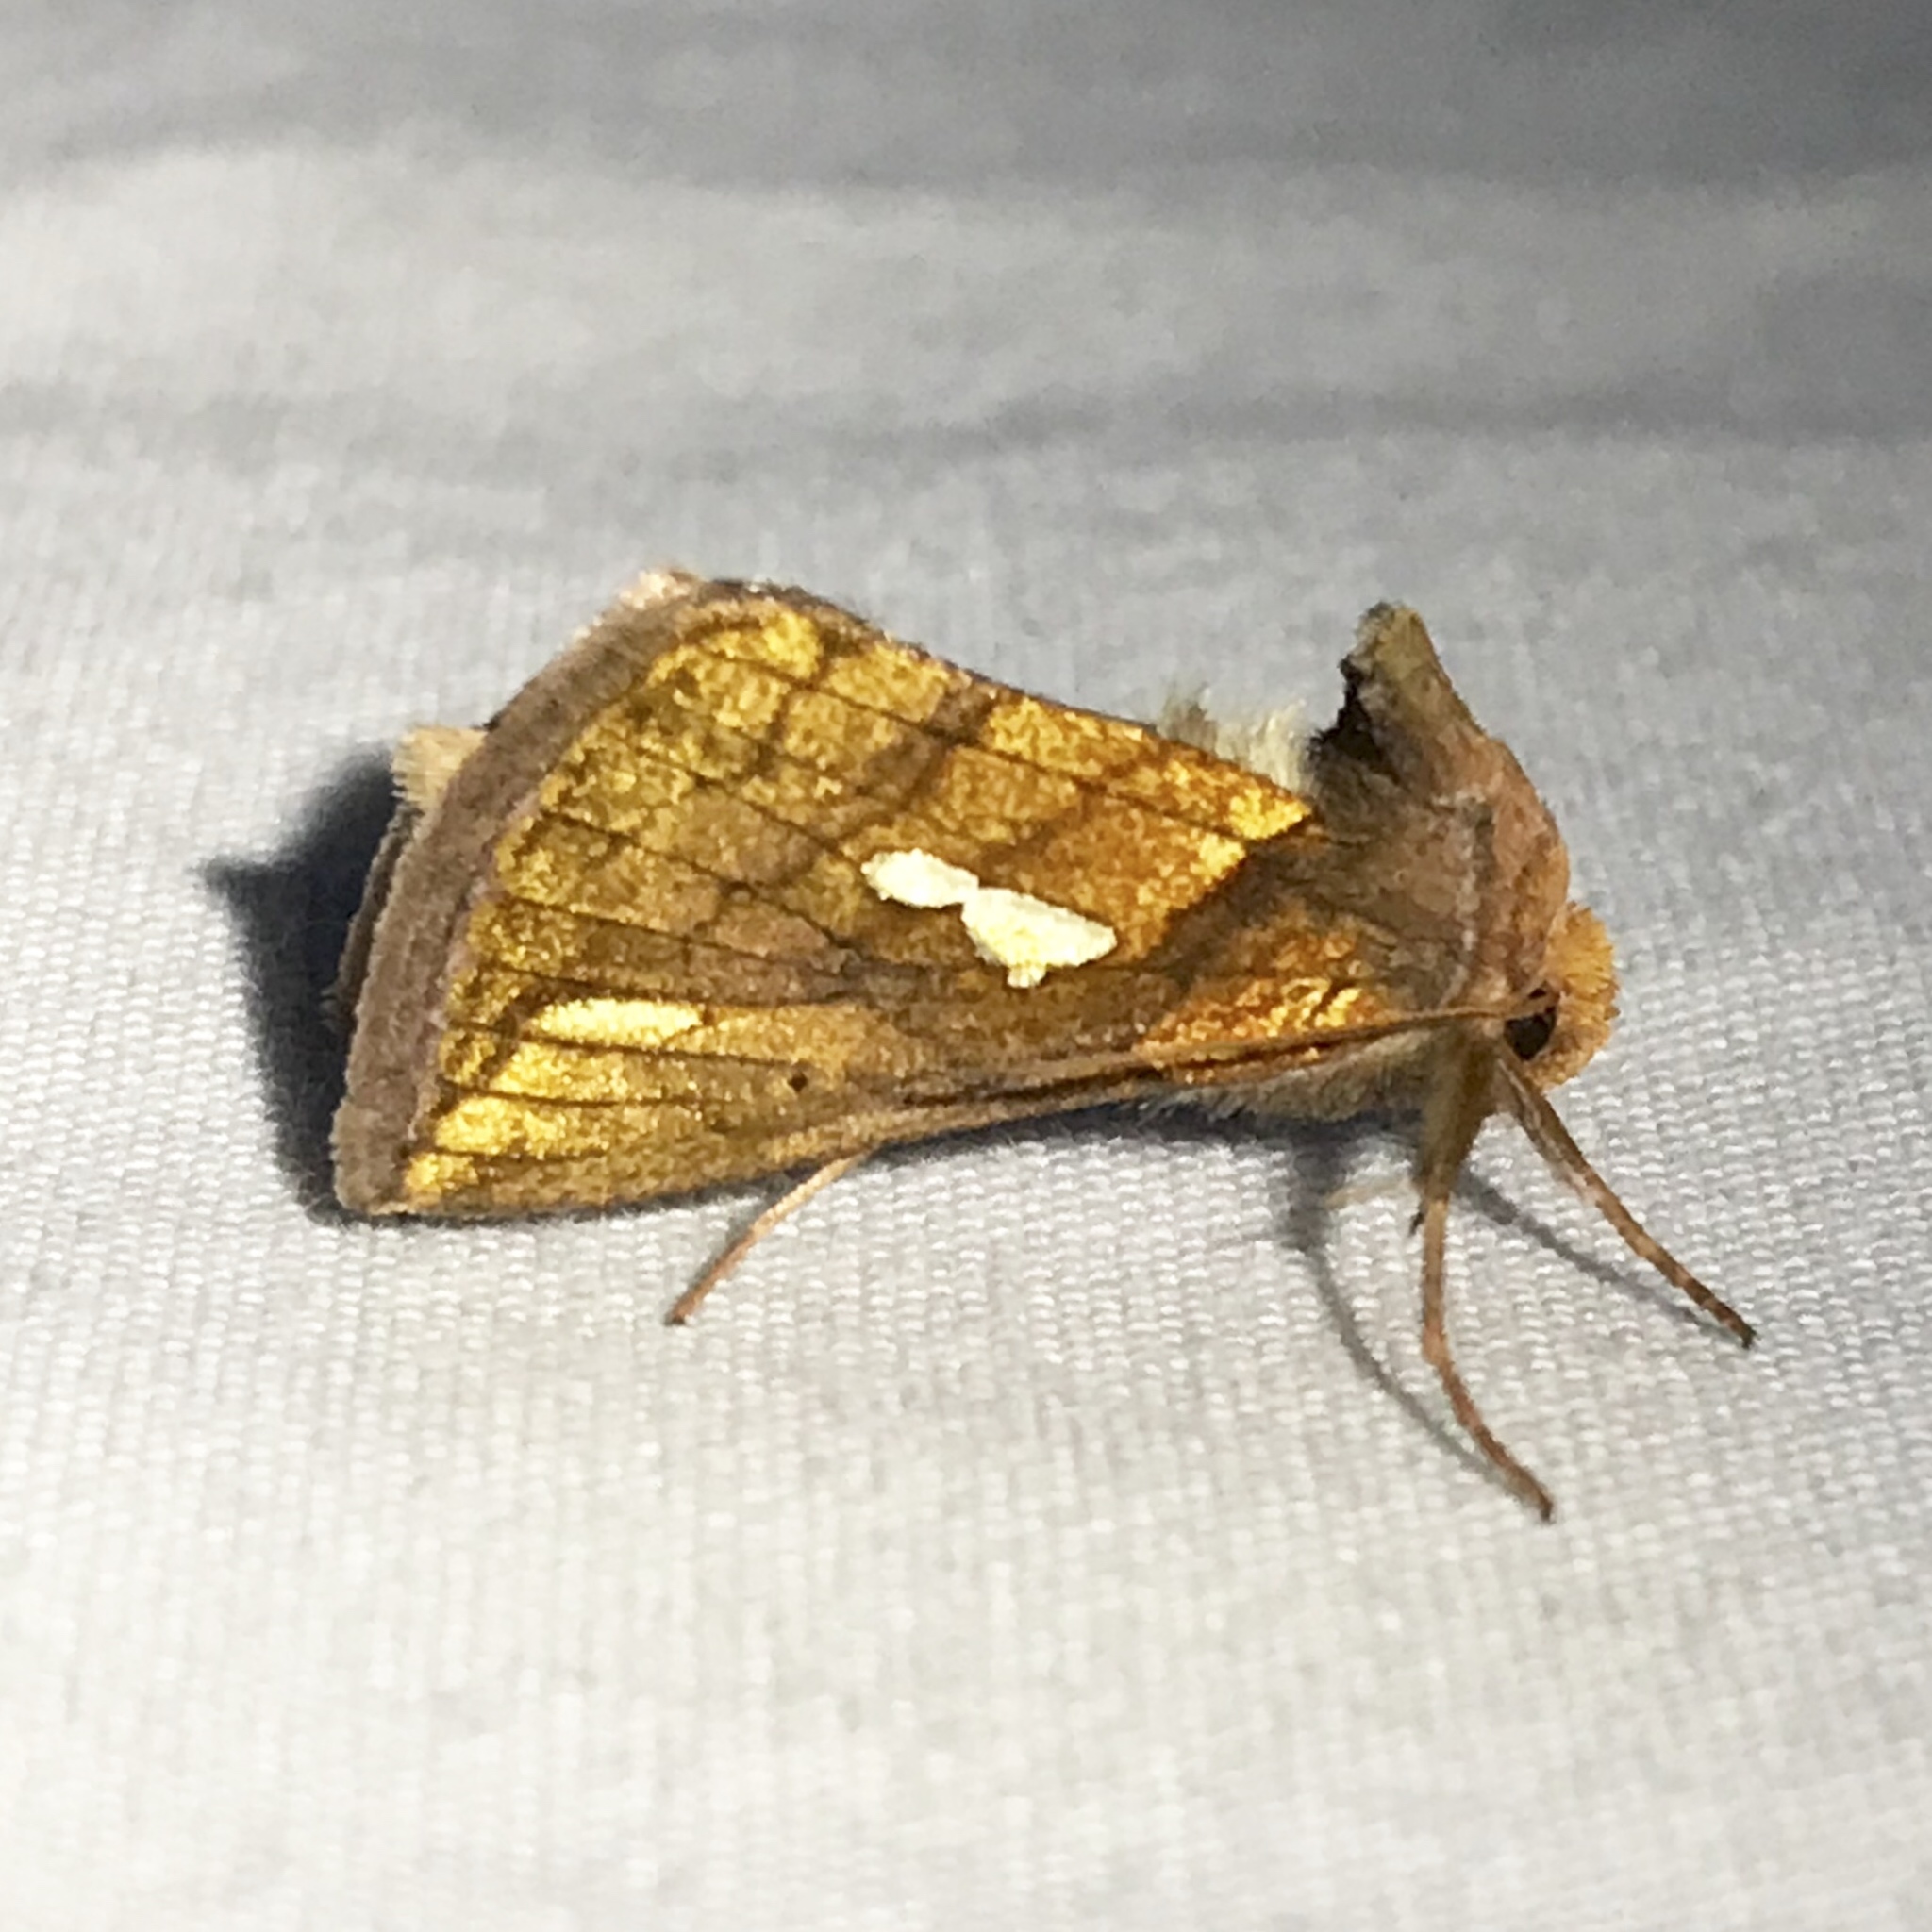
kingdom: Animalia
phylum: Arthropoda
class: Insecta
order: Lepidoptera
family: Noctuidae
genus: Plusia
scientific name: Plusia contexta
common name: Connected looper moth
